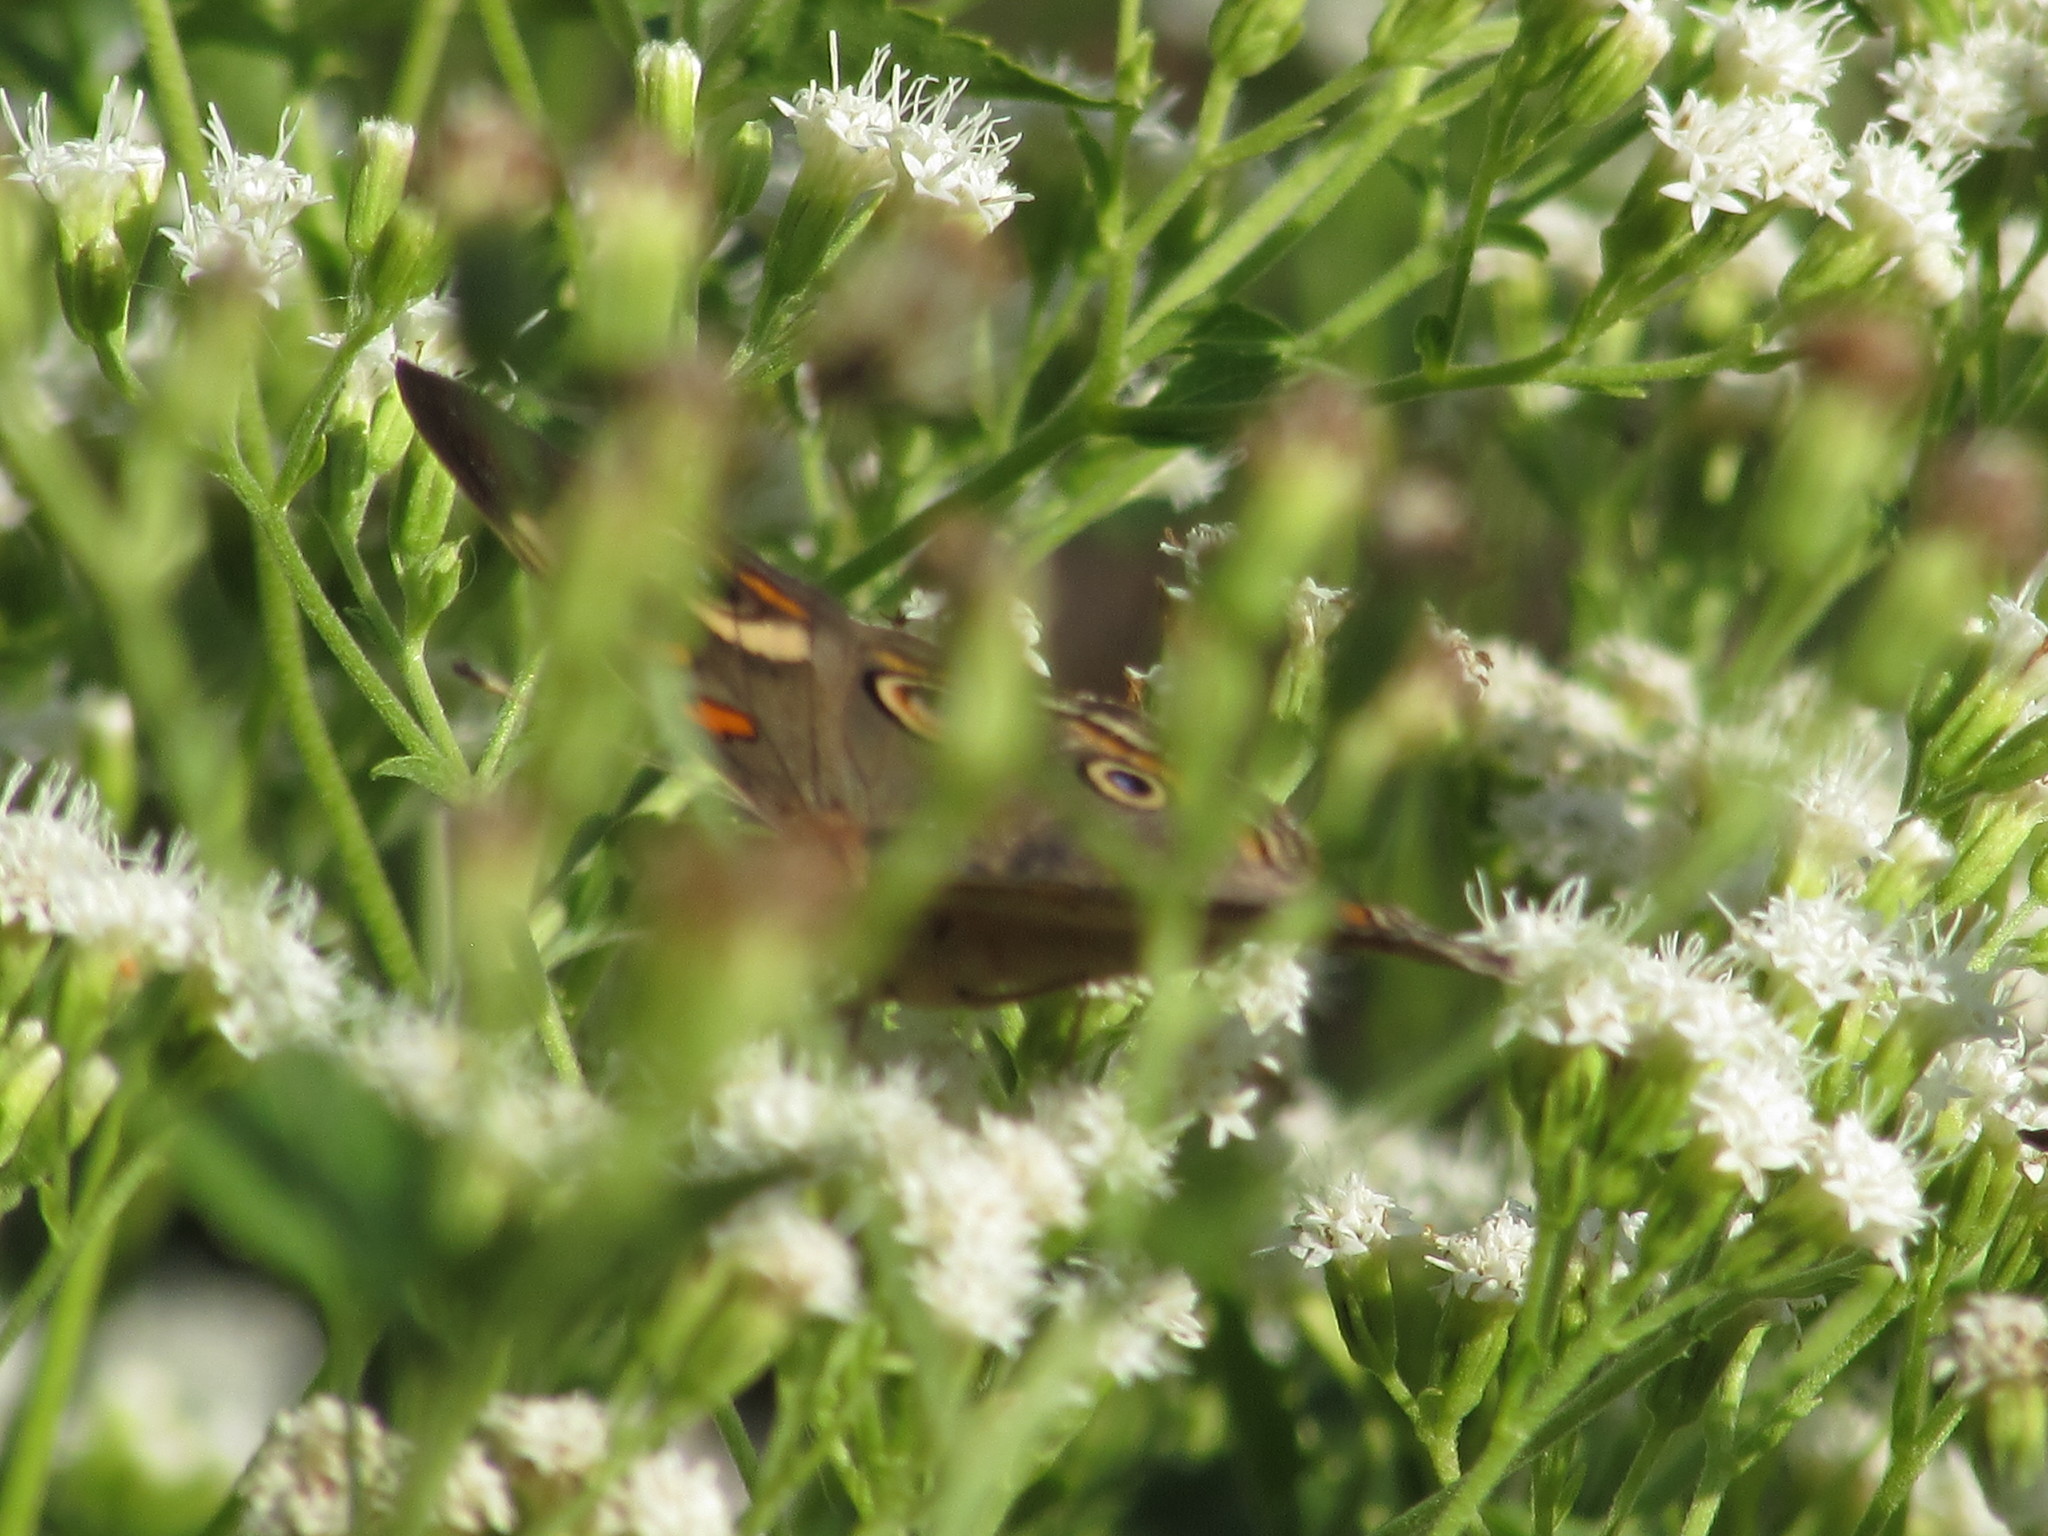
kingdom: Animalia
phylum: Arthropoda
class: Insecta
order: Lepidoptera
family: Nymphalidae
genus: Junonia
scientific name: Junonia coenia
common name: Common buckeye
